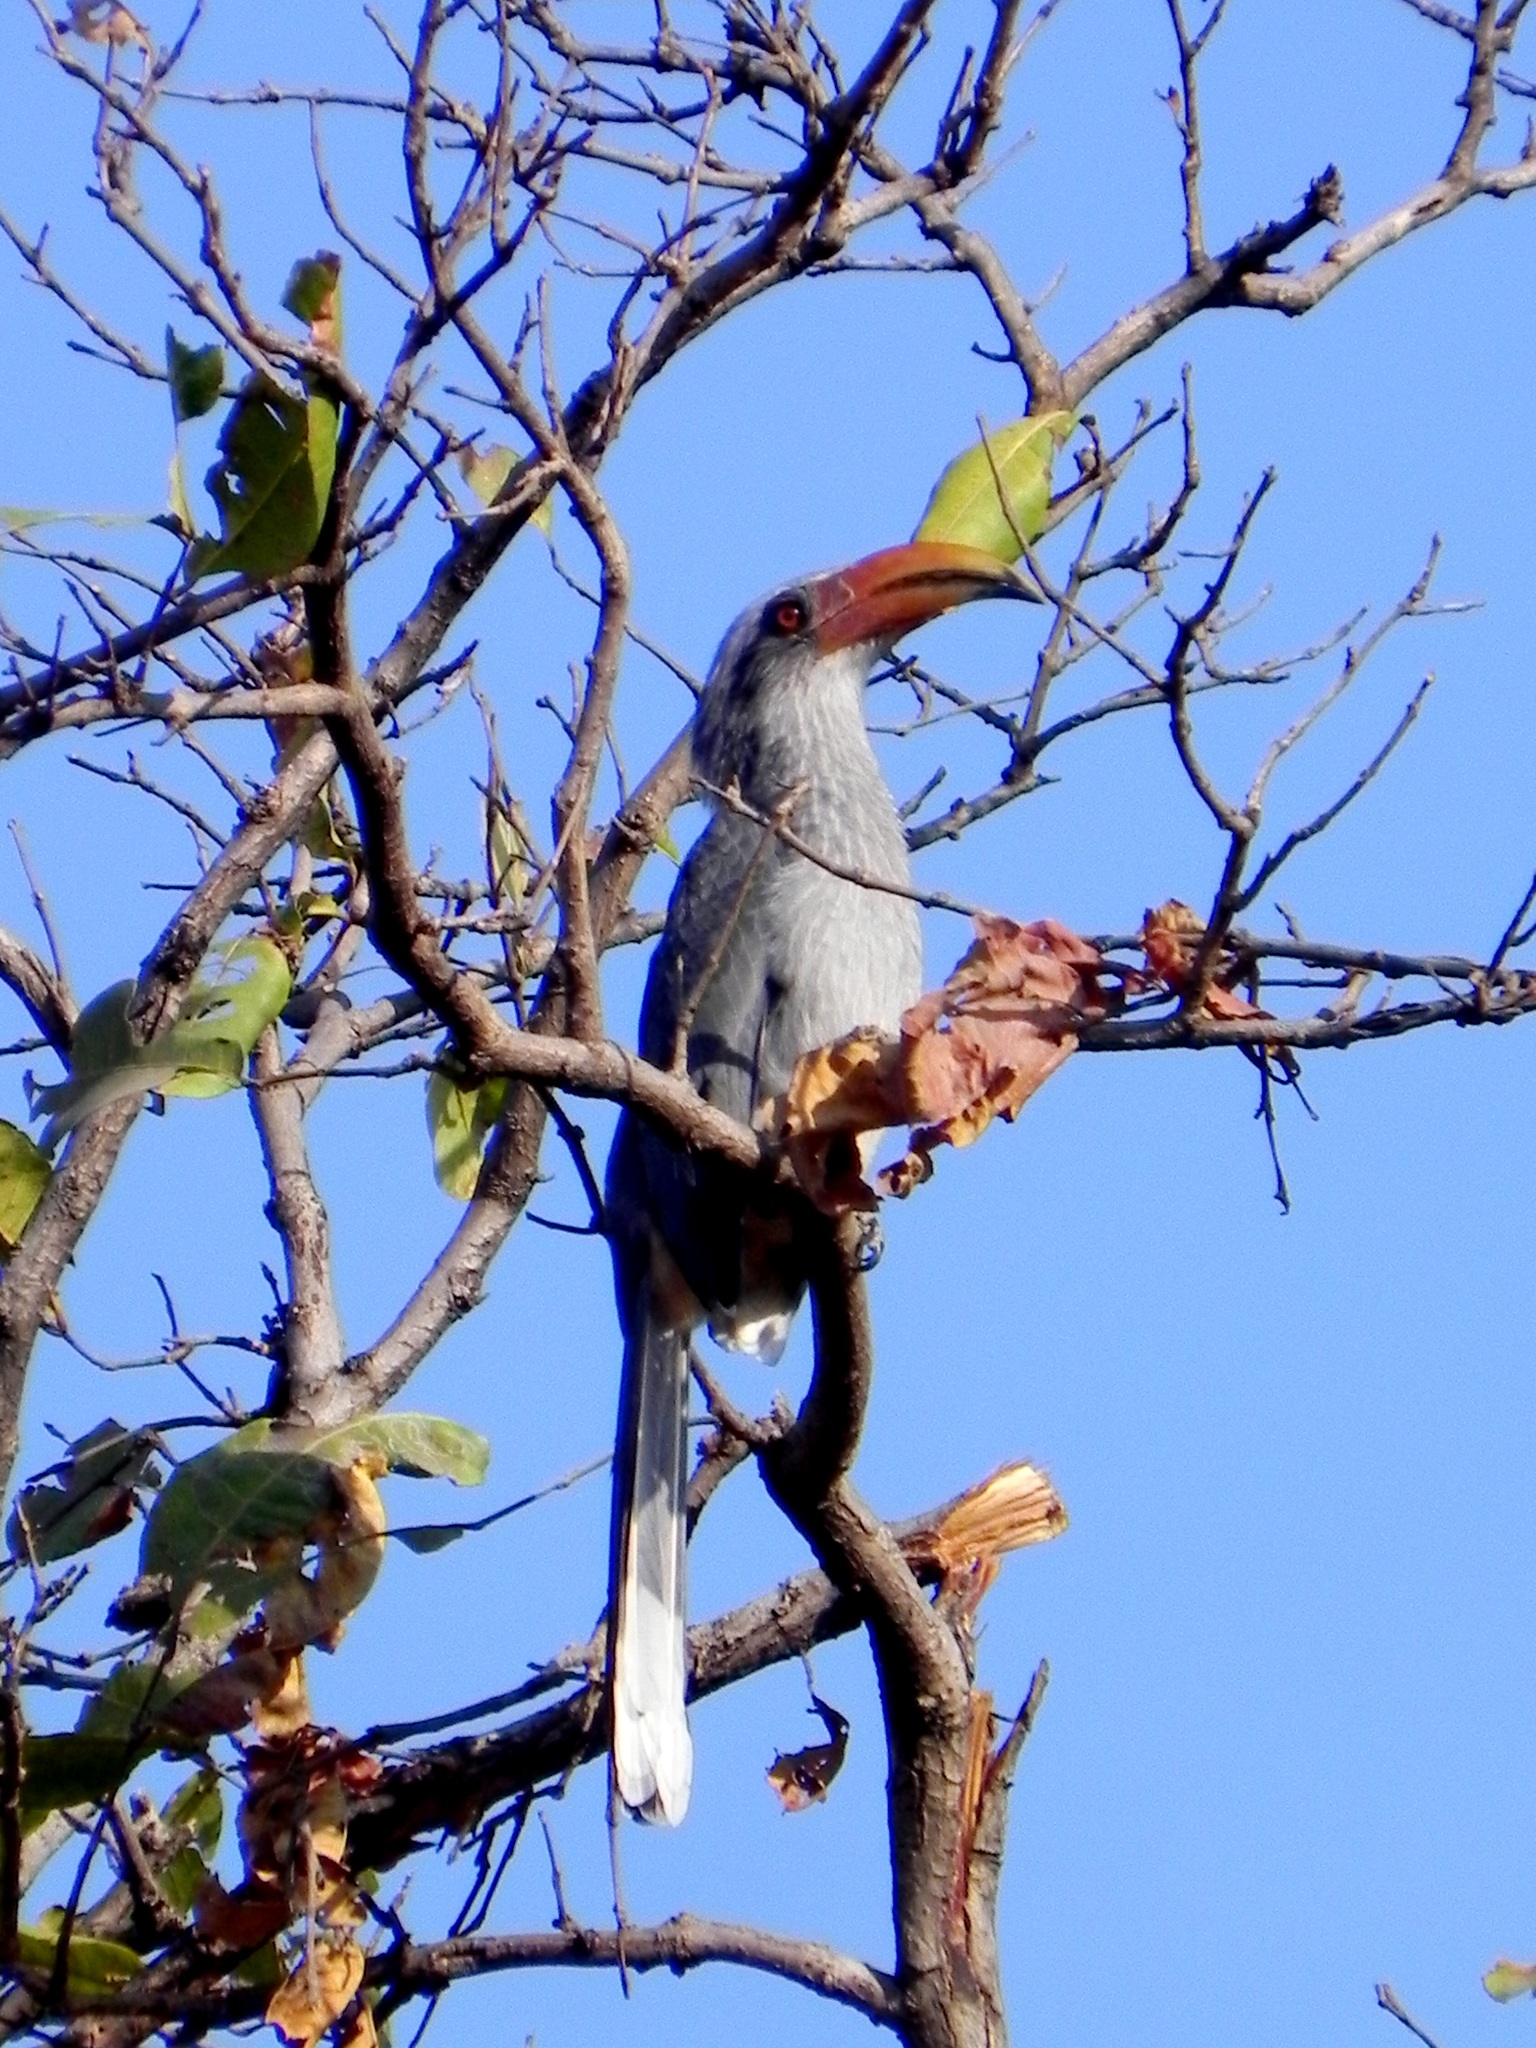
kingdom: Animalia
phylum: Chordata
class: Aves
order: Bucerotiformes
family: Bucerotidae
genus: Ocyceros
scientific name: Ocyceros griseus
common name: Malabar grey hornbill
